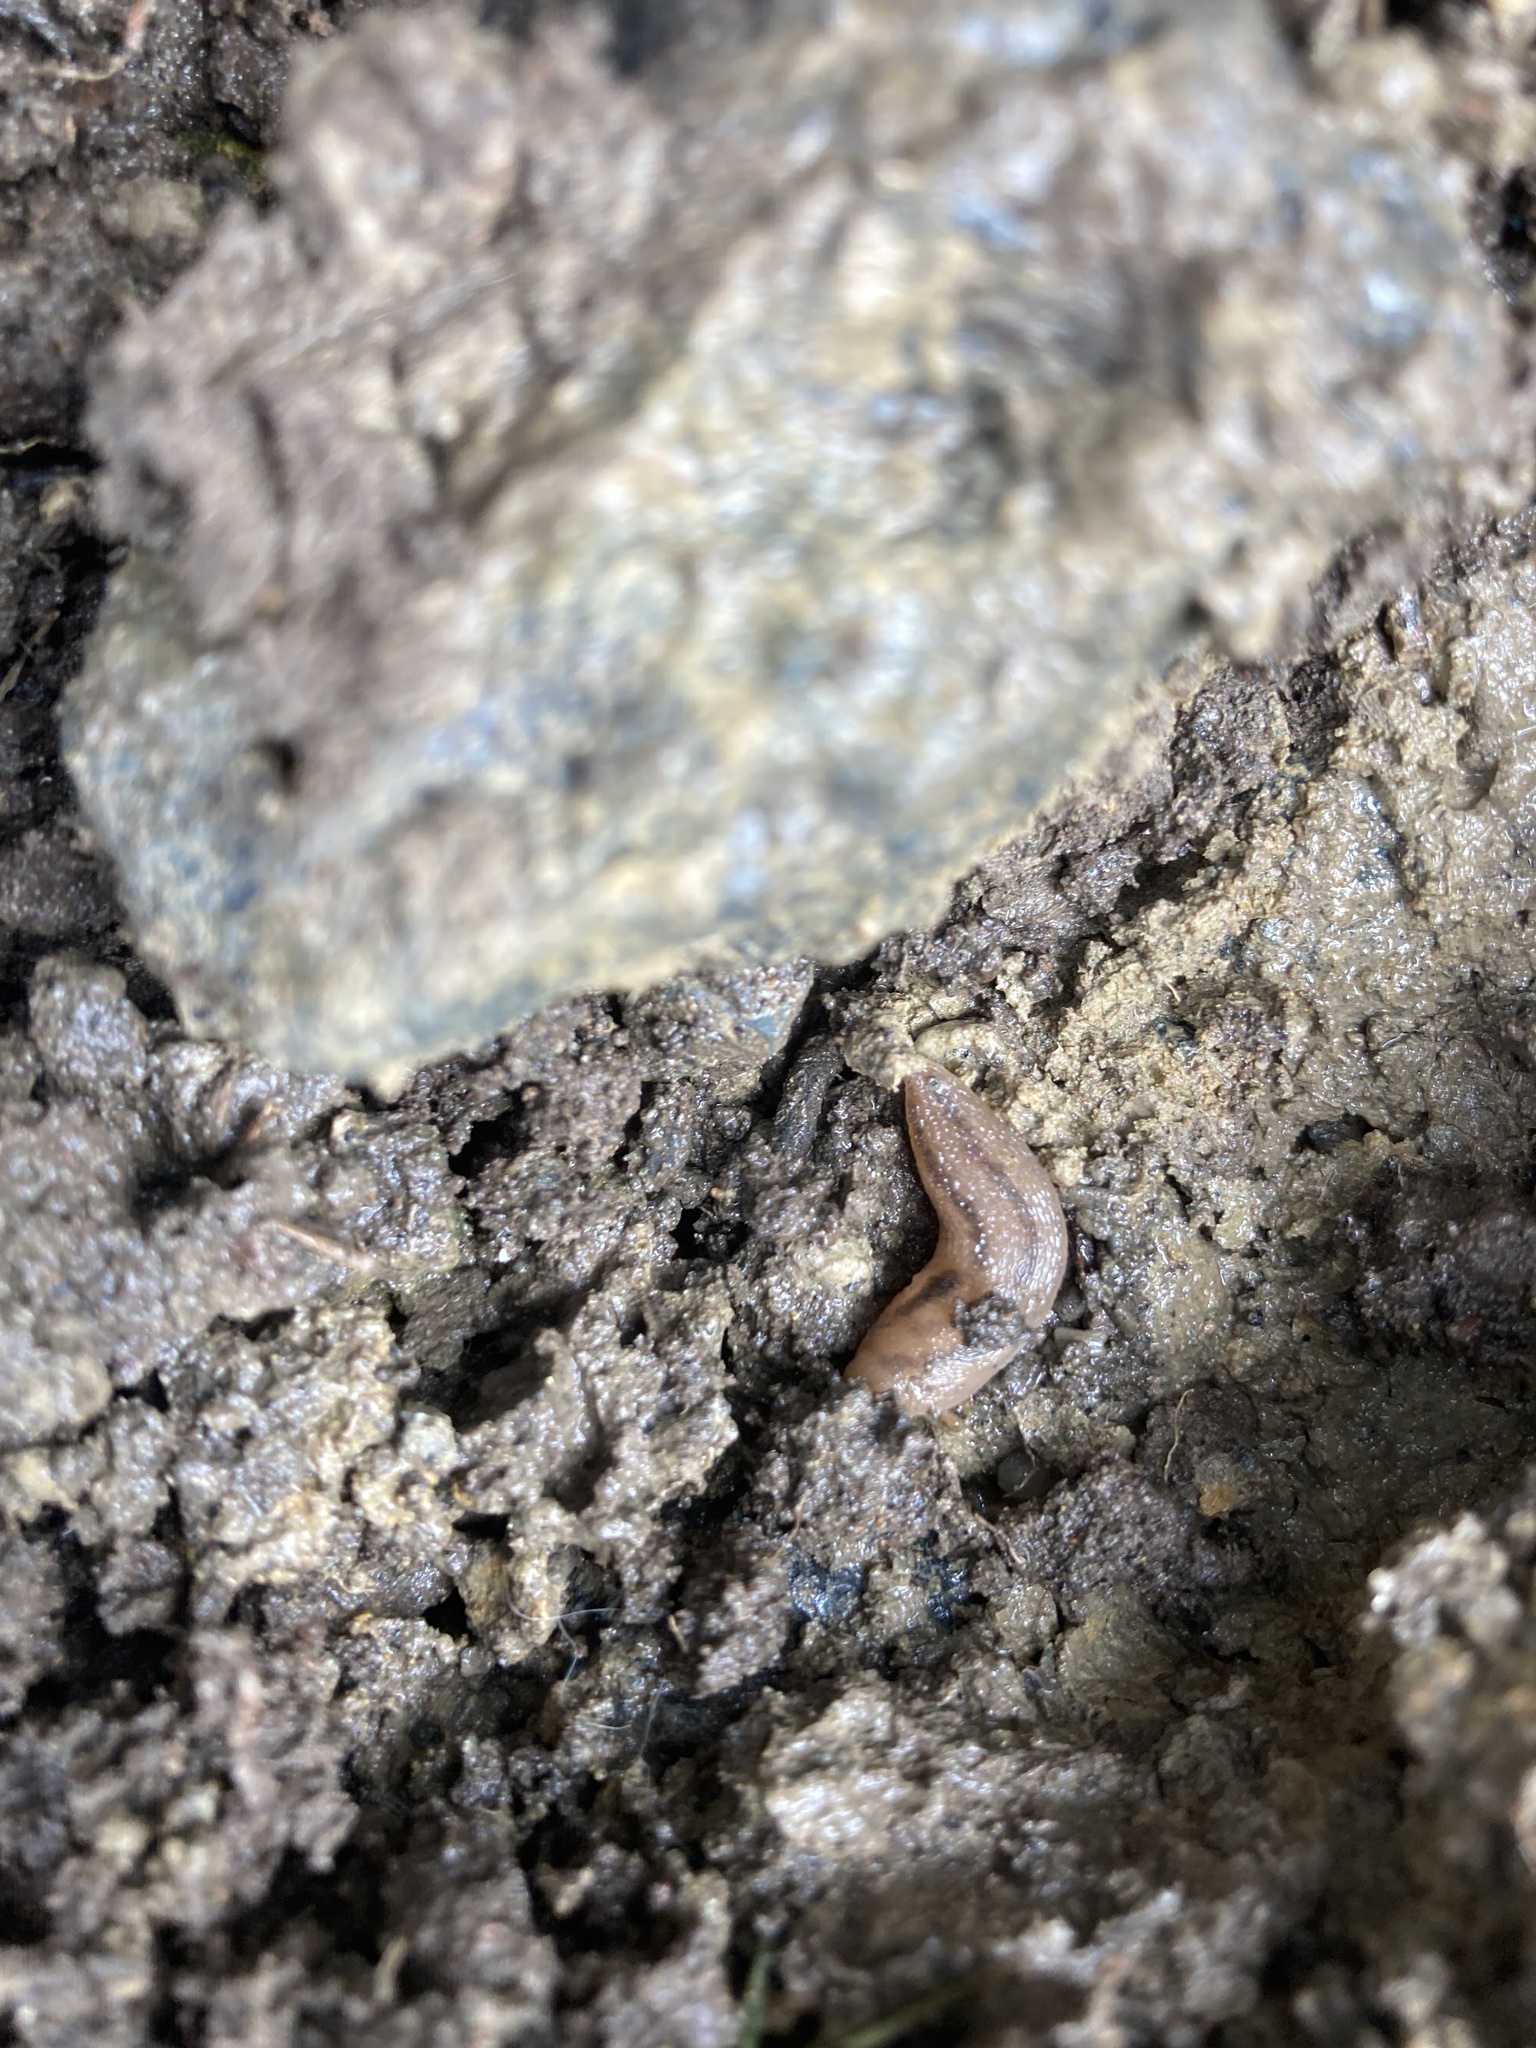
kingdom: Animalia
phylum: Mollusca
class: Gastropoda
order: Stylommatophora
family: Limacidae
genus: Ambigolimax
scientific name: Ambigolimax
